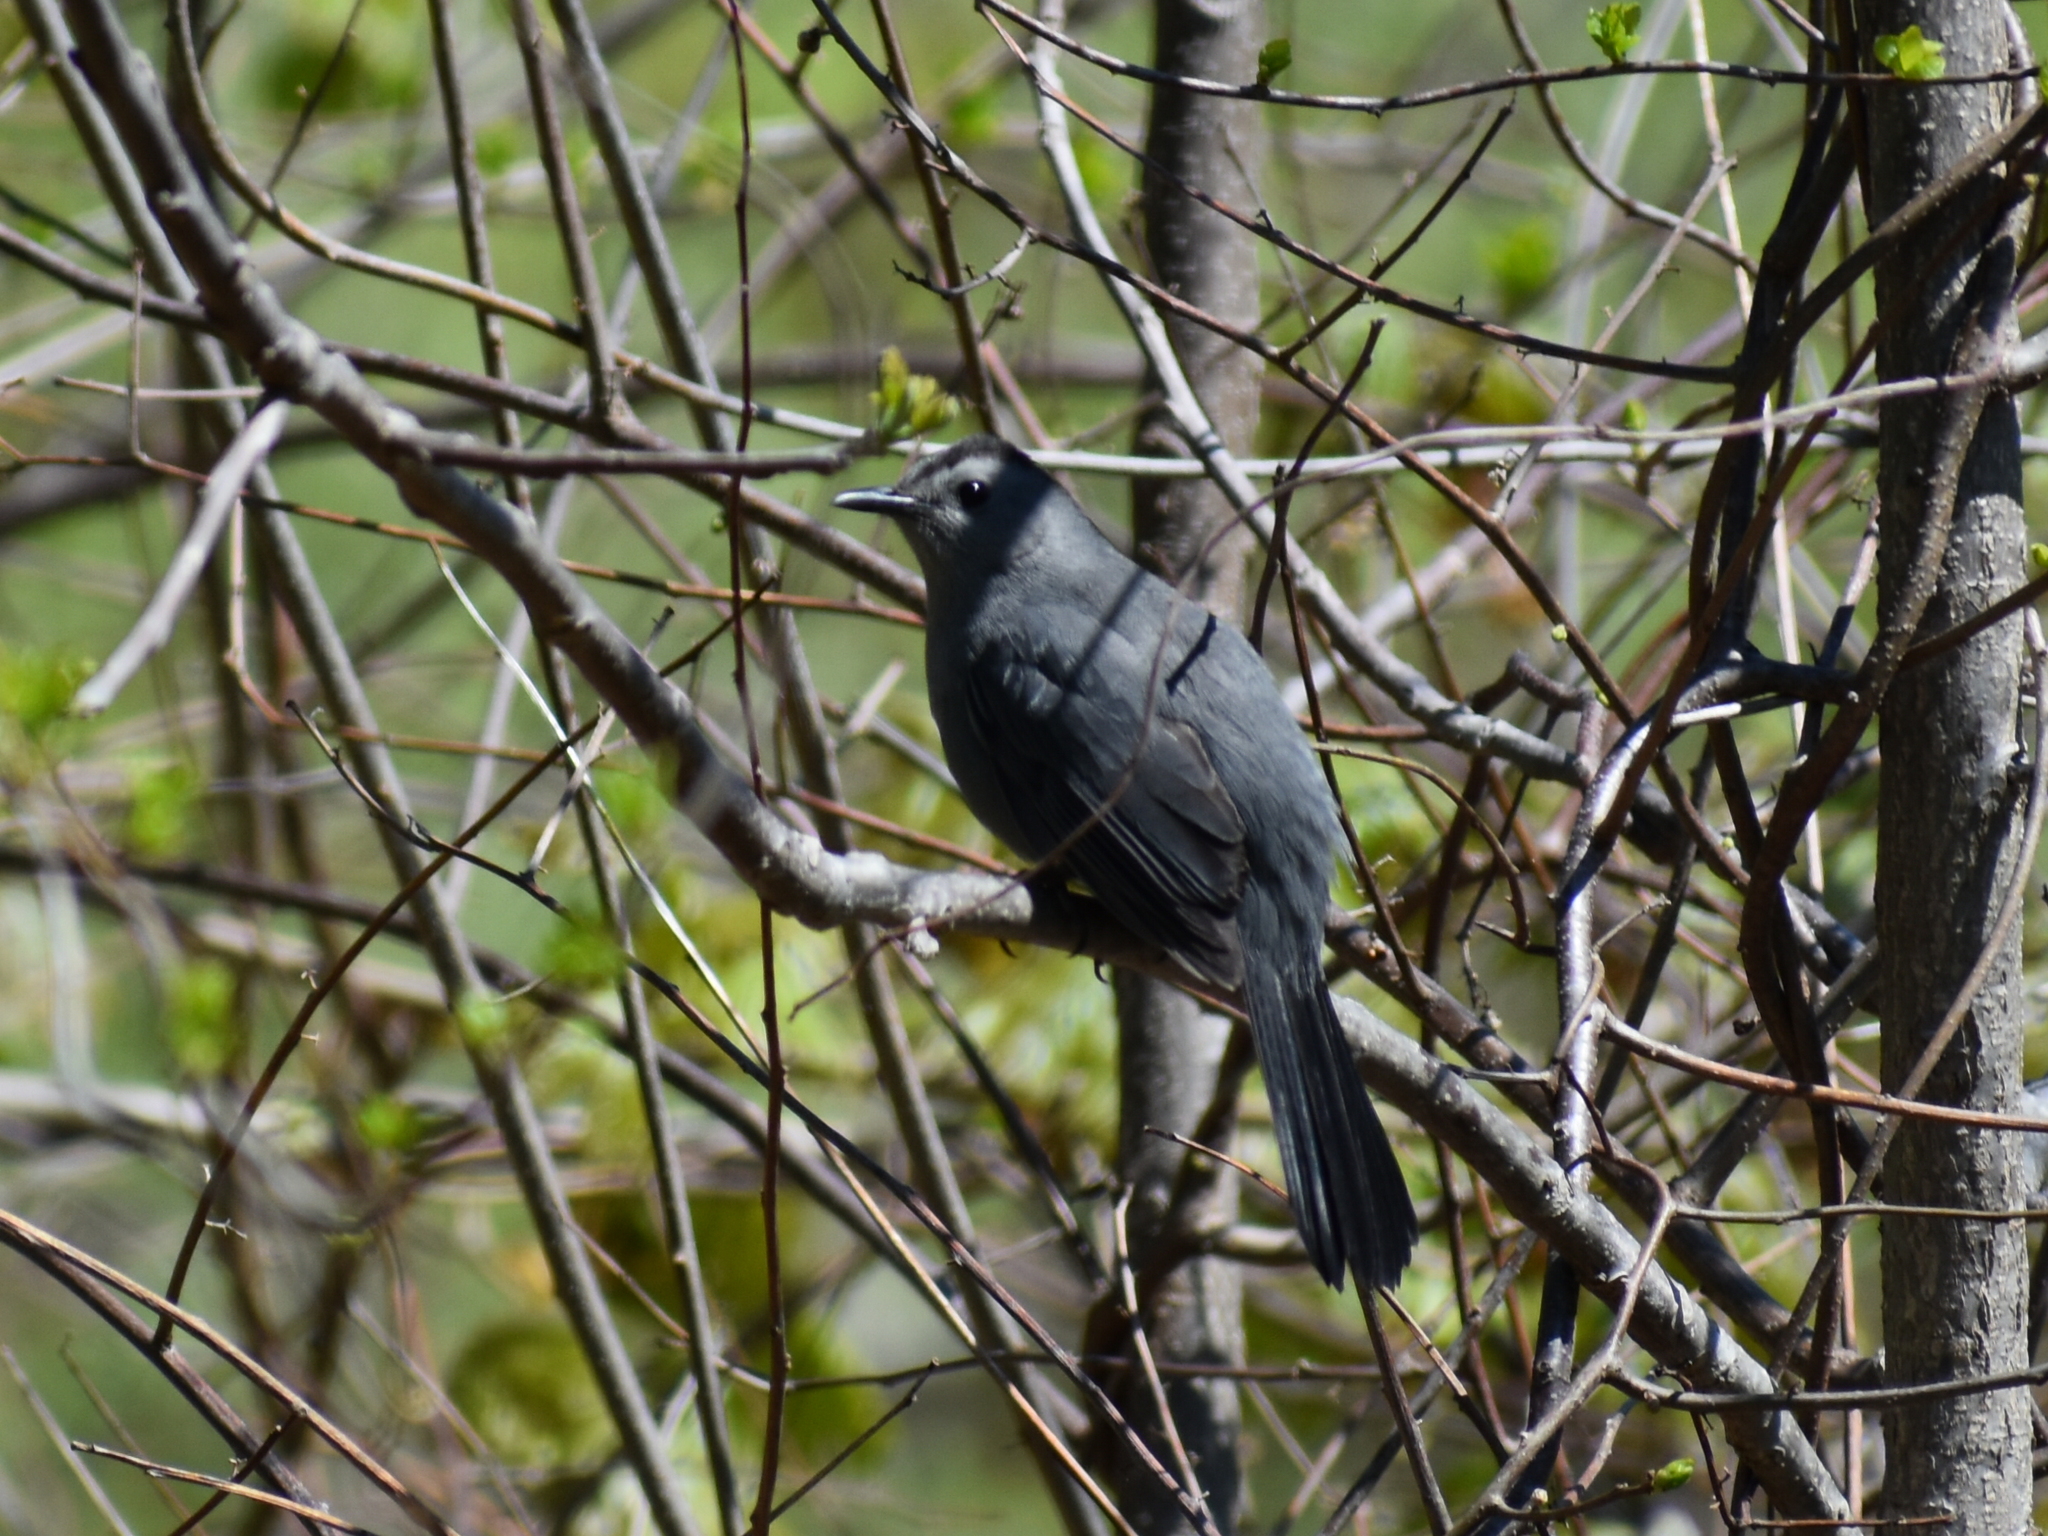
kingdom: Animalia
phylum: Chordata
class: Aves
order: Passeriformes
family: Mimidae
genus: Dumetella
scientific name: Dumetella carolinensis
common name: Gray catbird
